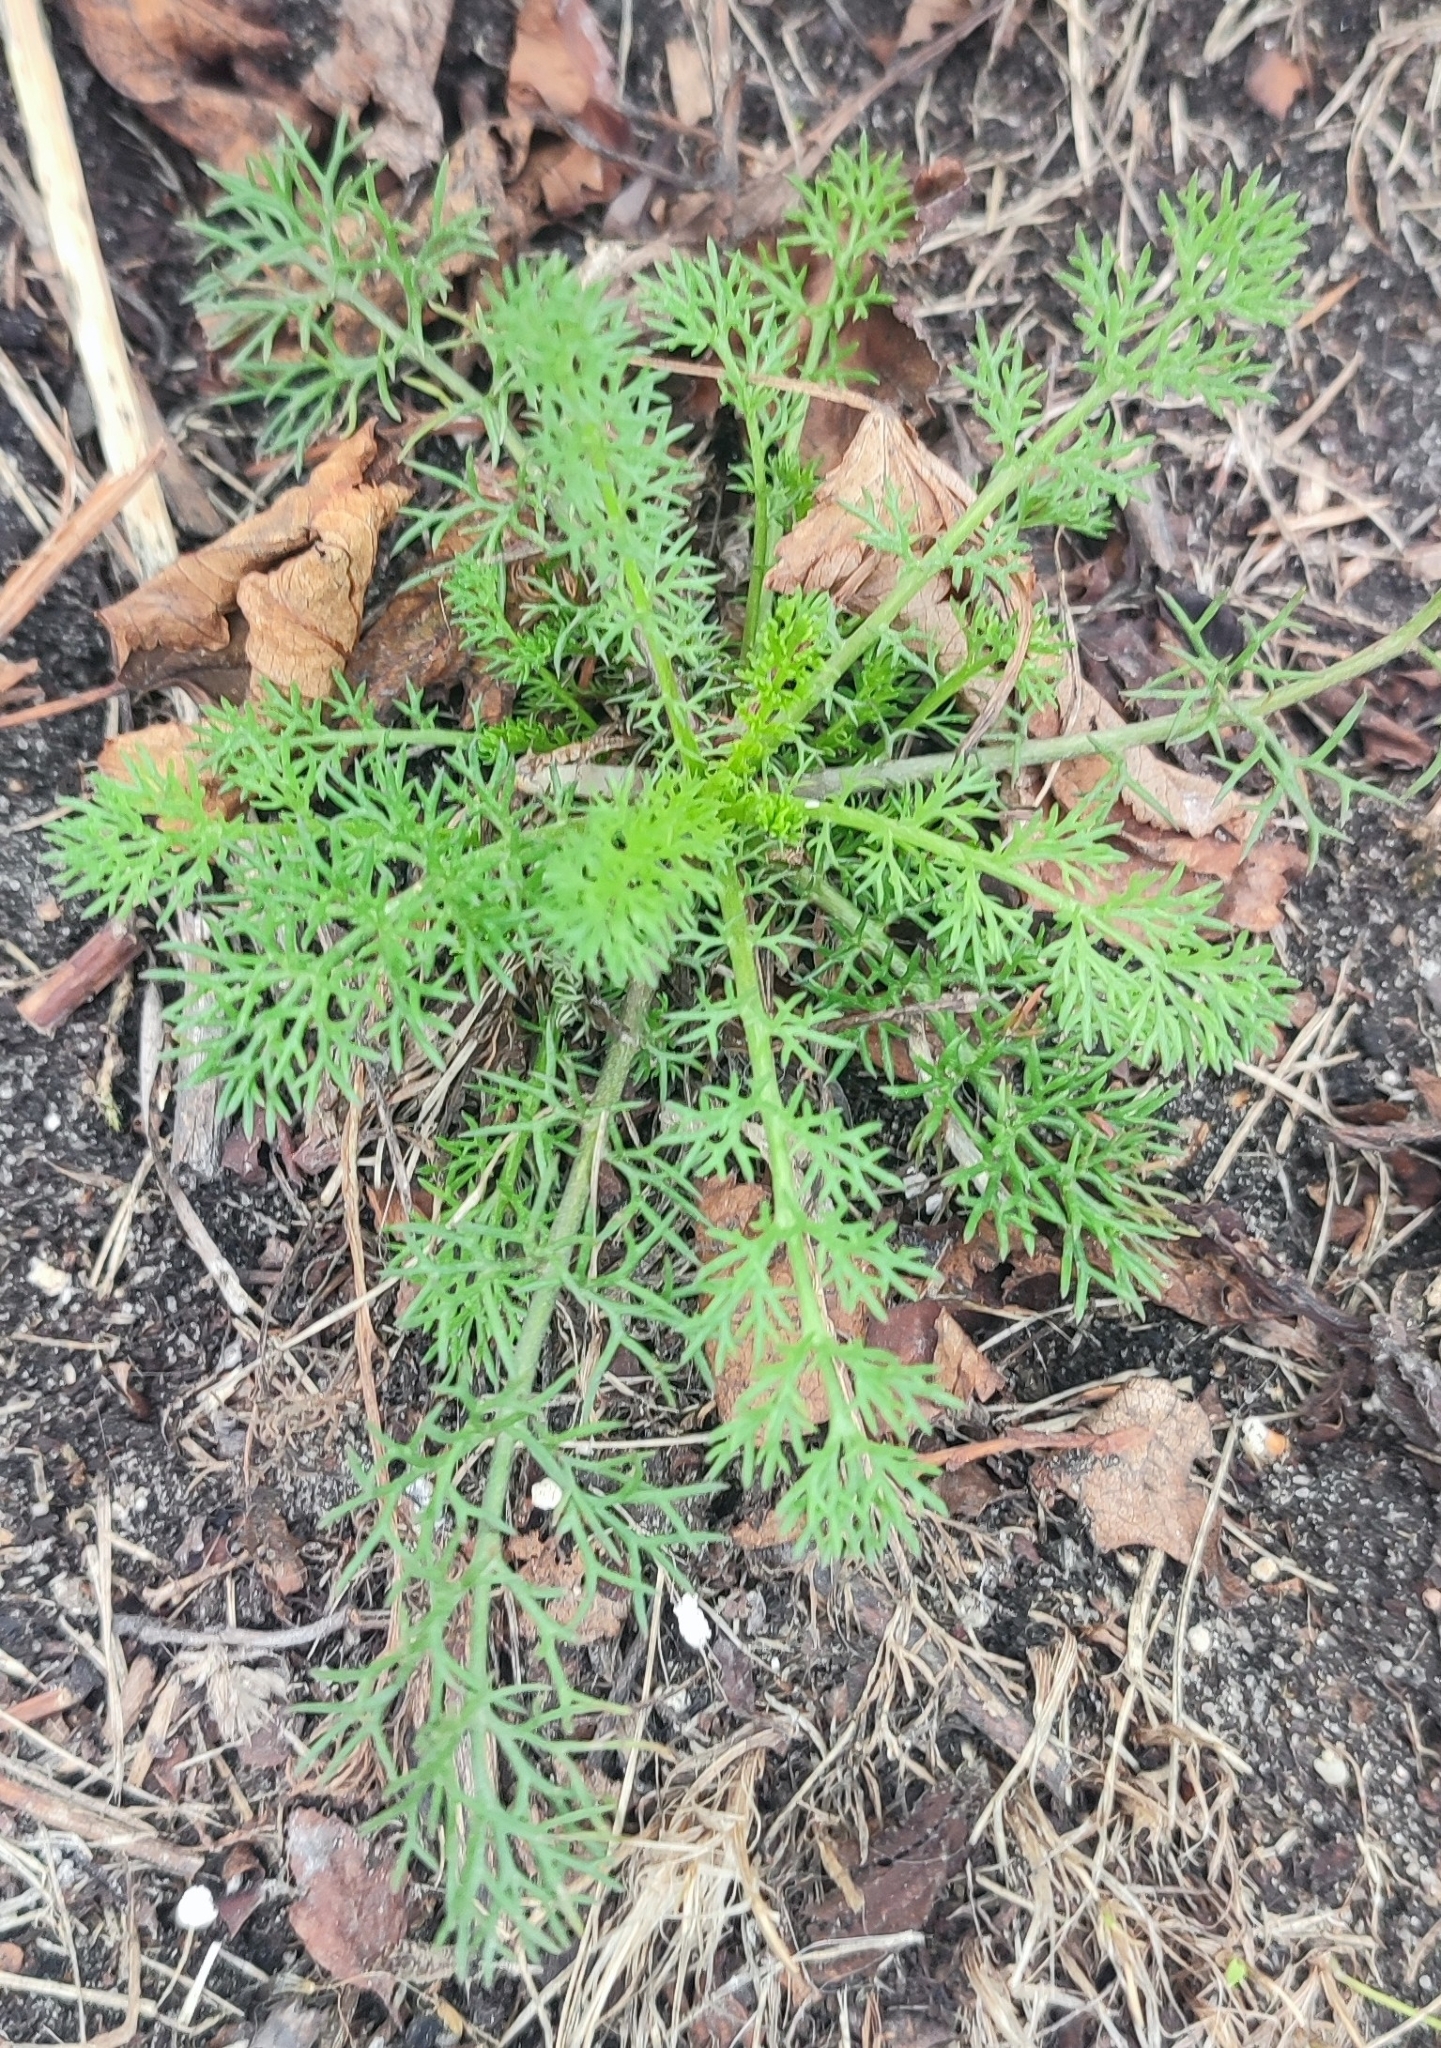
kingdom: Plantae
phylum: Tracheophyta
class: Magnoliopsida
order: Asterales
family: Asteraceae
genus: Tripleurospermum
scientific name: Tripleurospermum inodorum
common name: Scentless mayweed
